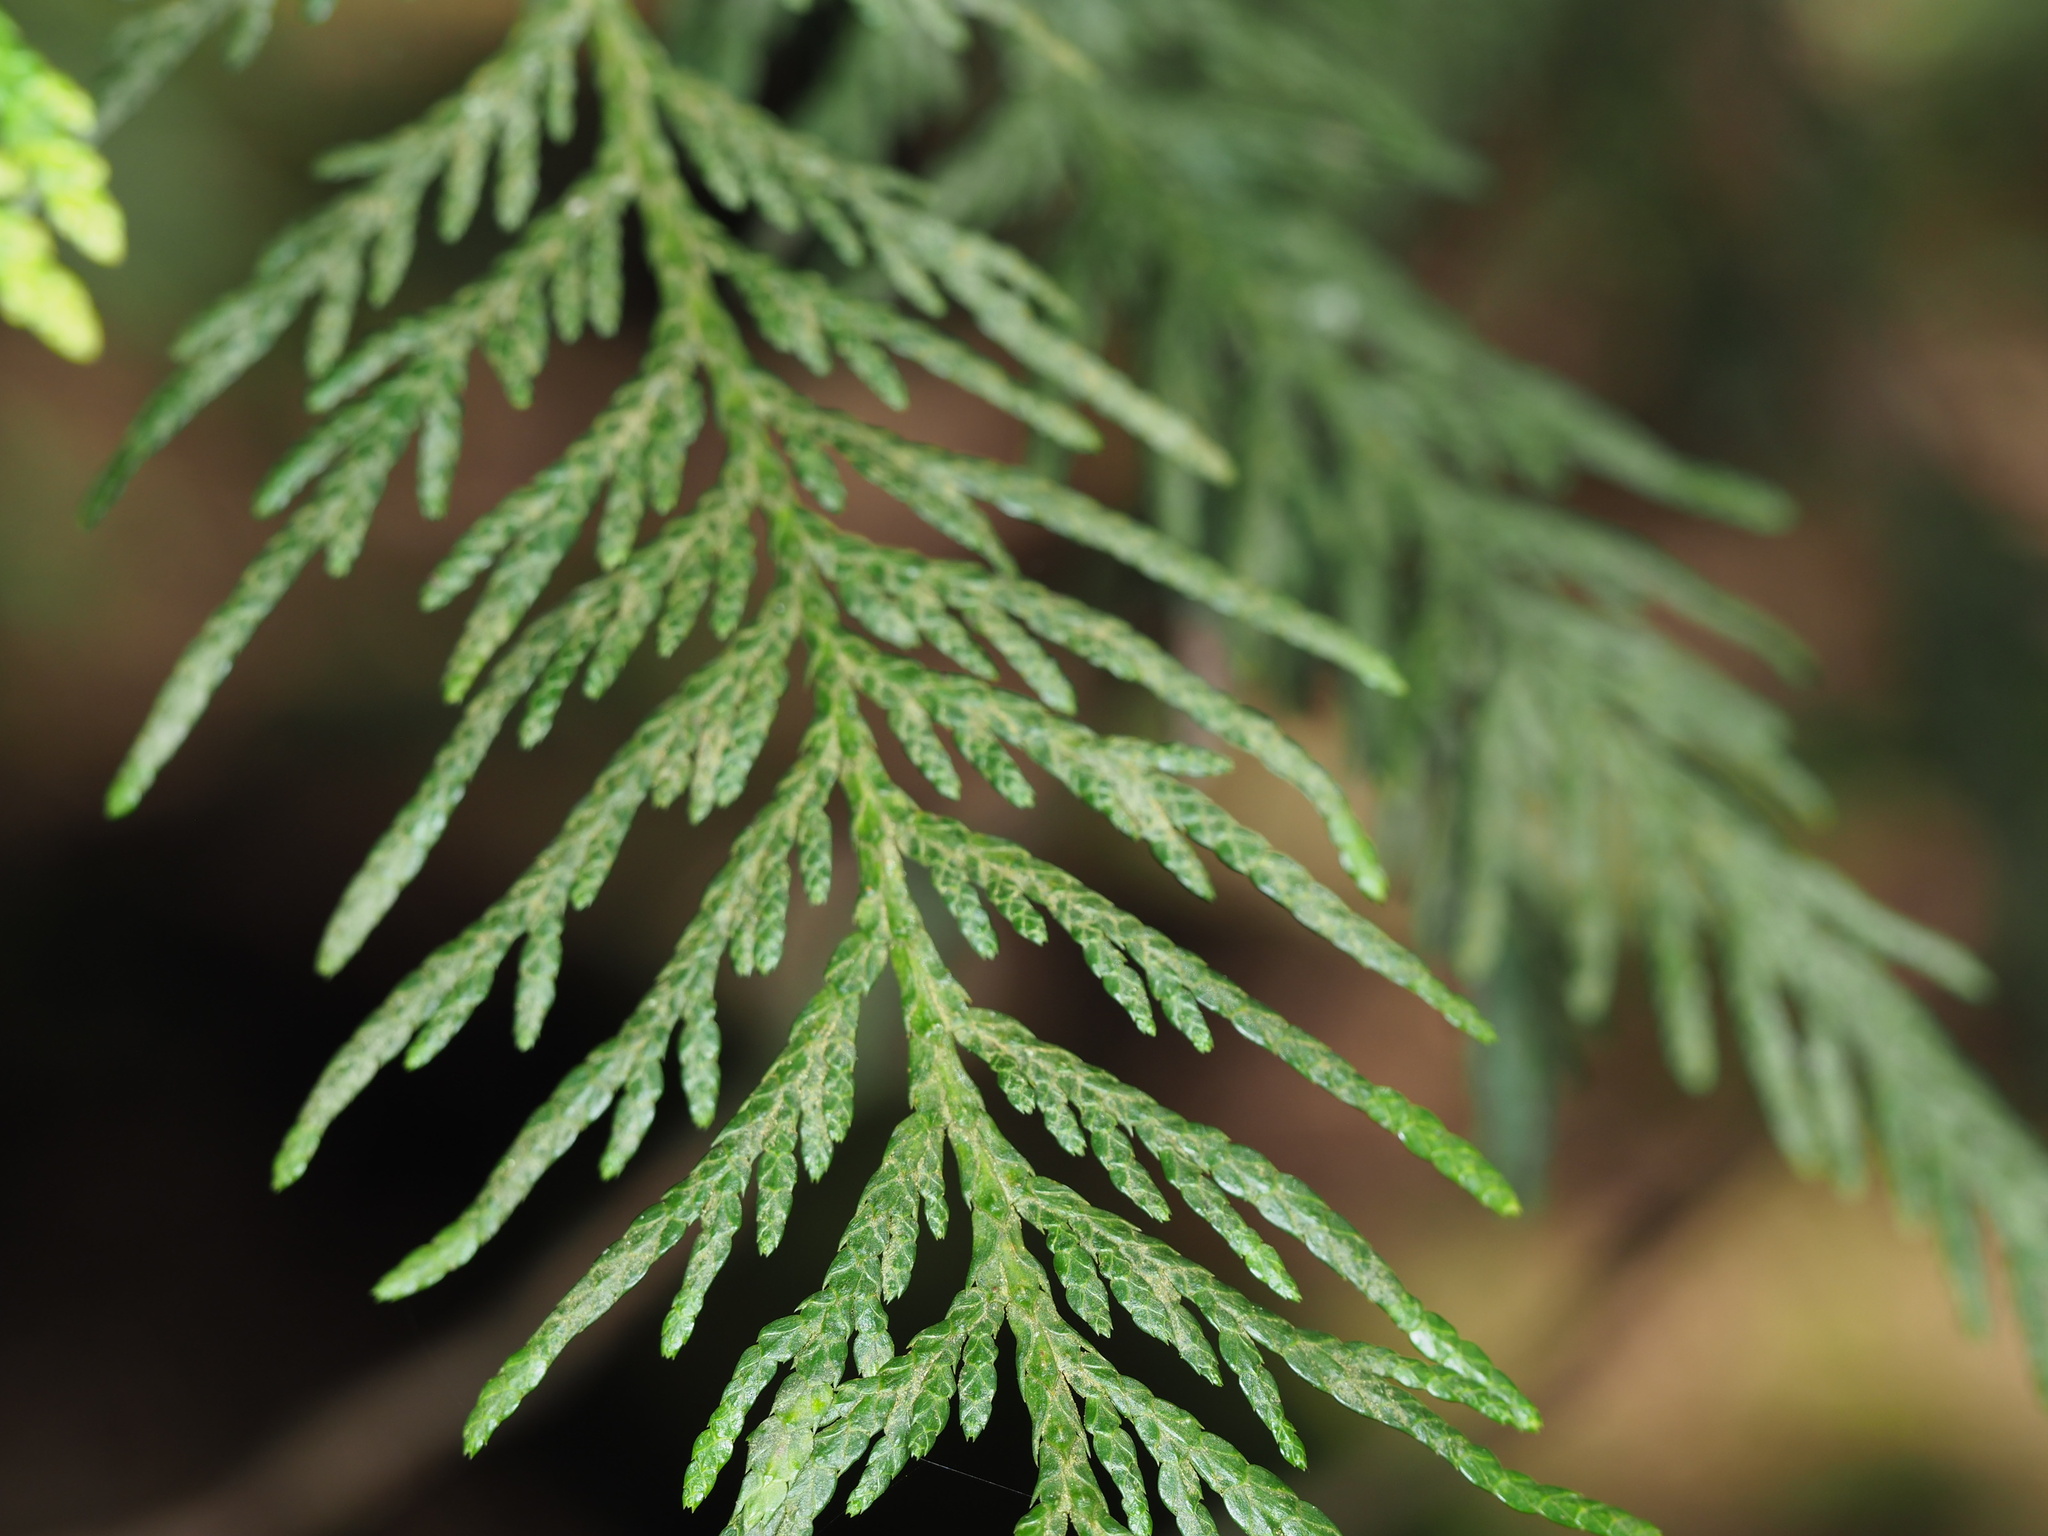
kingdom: Plantae
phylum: Tracheophyta
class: Pinopsida
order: Pinales
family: Cupressaceae
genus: Thuja
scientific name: Thuja plicata
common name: Western red-cedar
